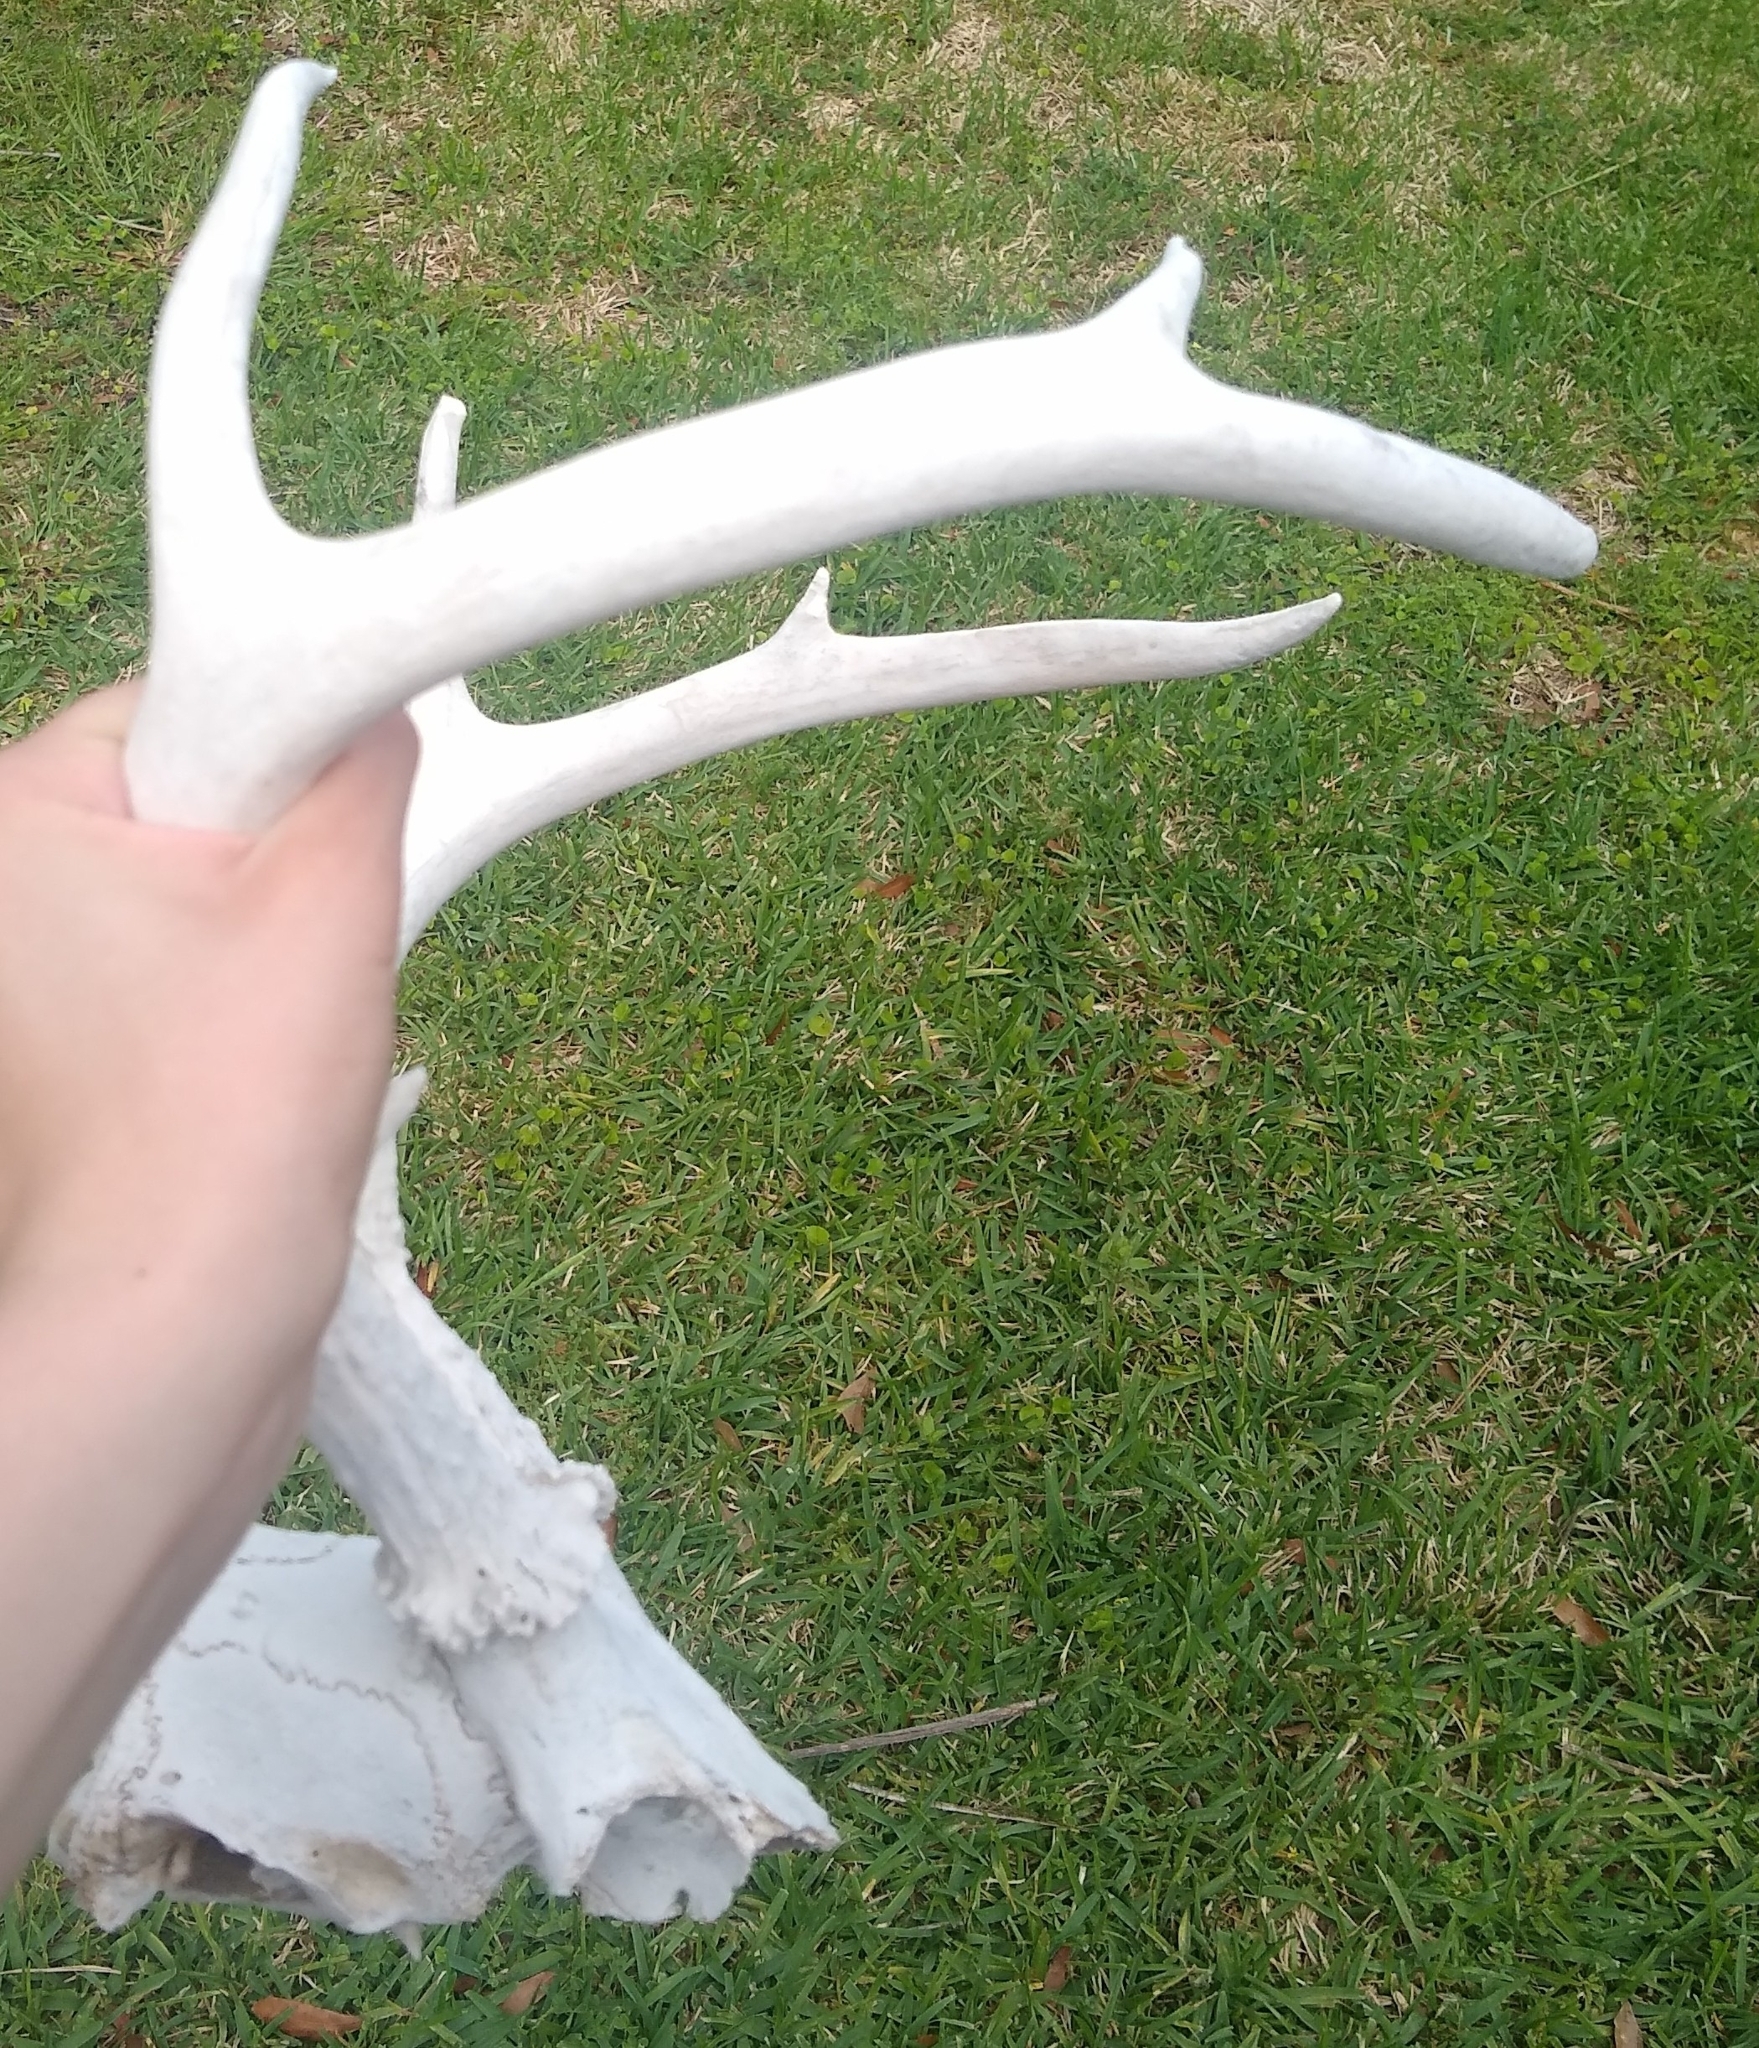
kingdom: Animalia
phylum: Chordata
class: Mammalia
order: Artiodactyla
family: Cervidae
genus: Odocoileus
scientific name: Odocoileus virginianus
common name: White-tailed deer
